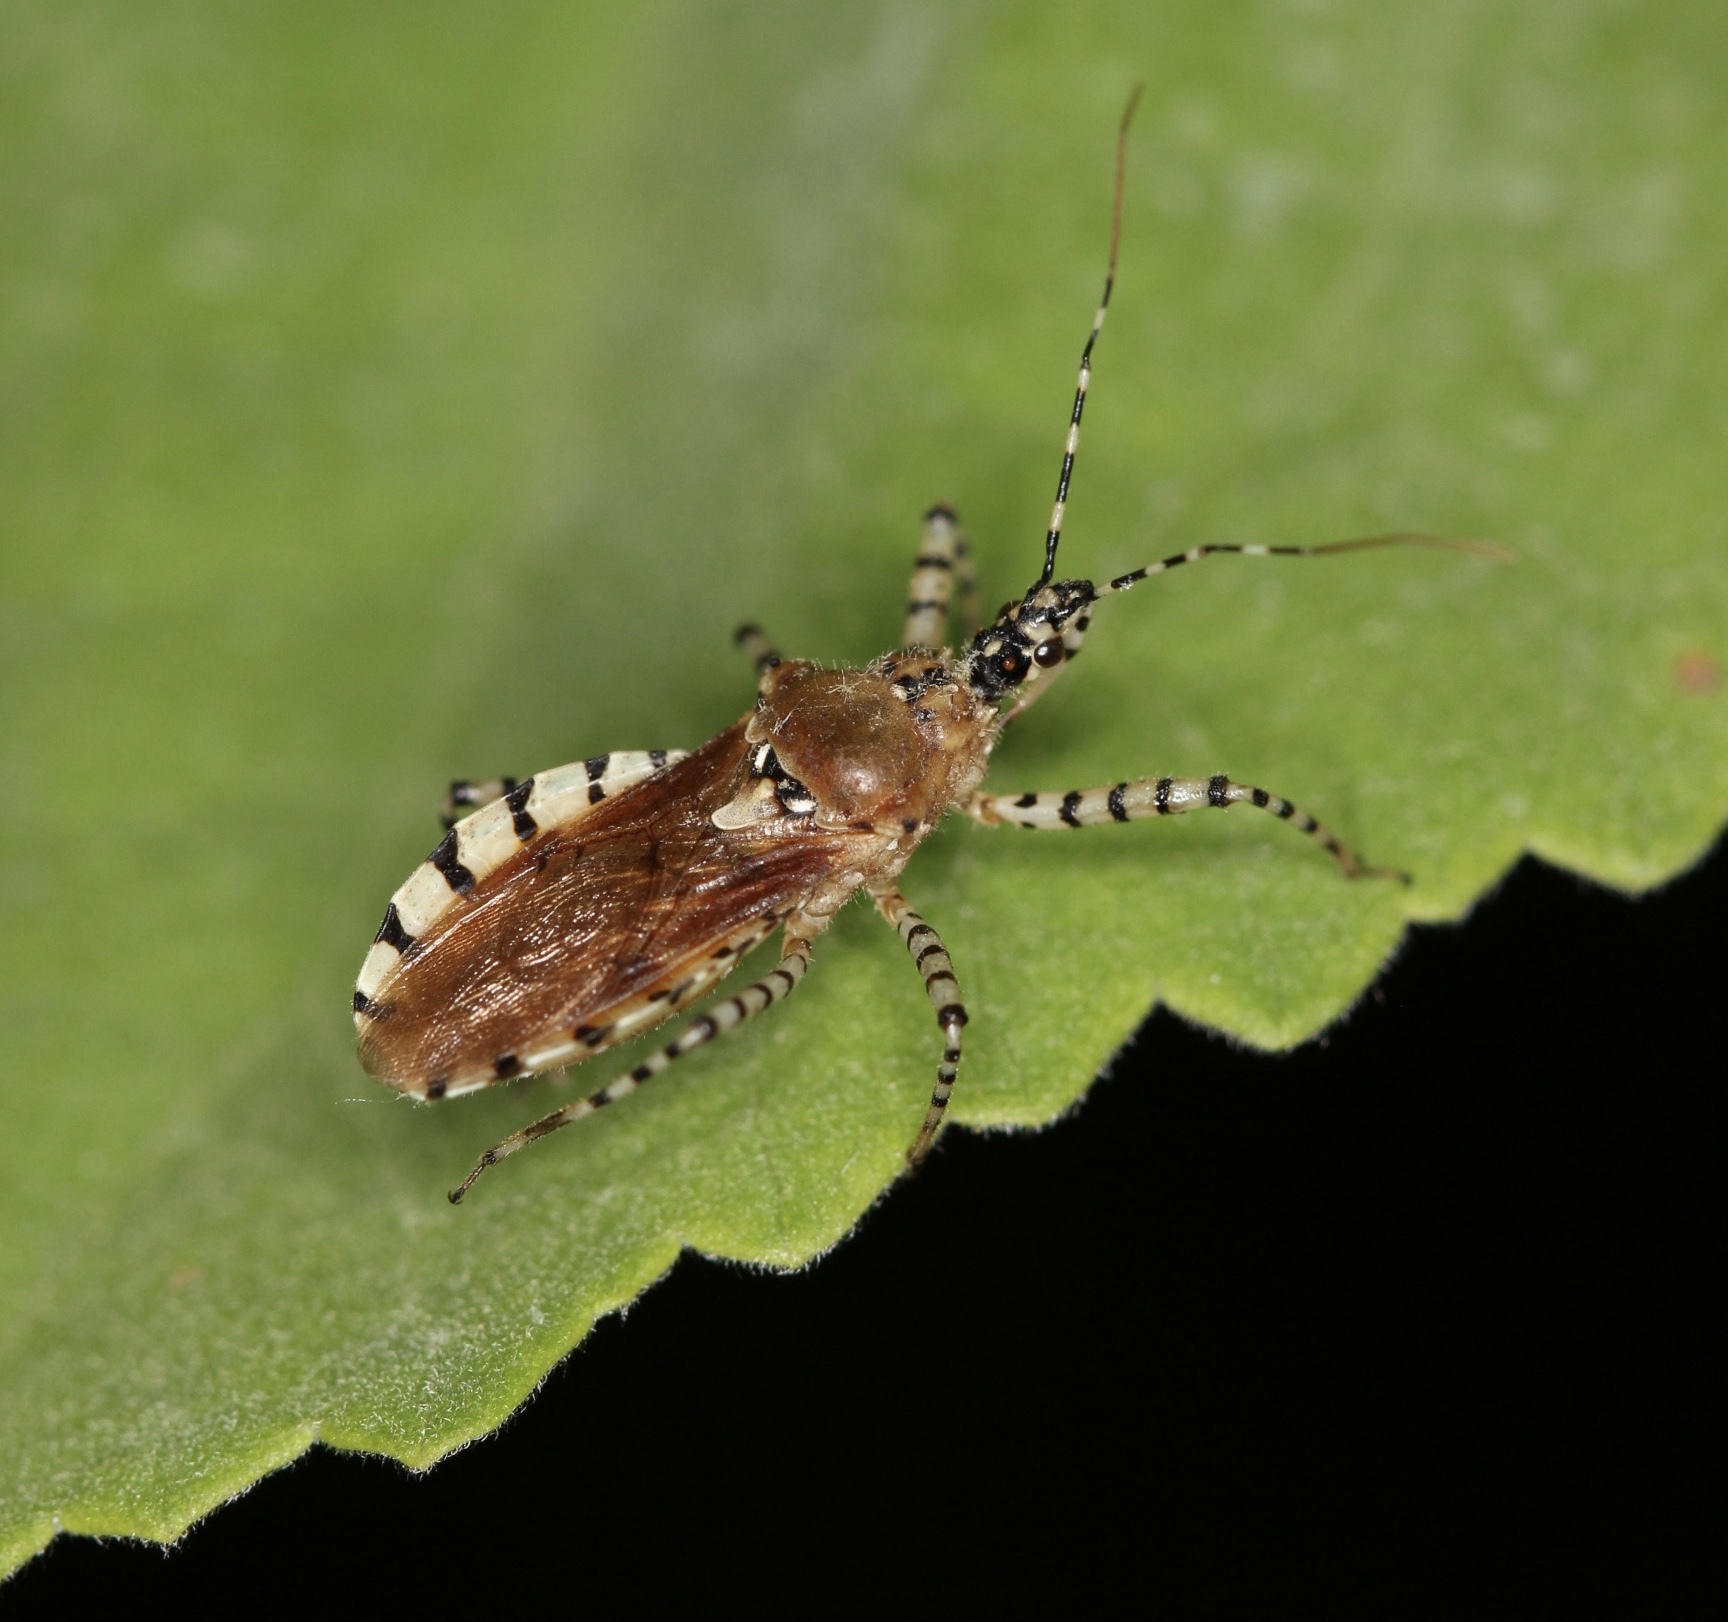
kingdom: Animalia
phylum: Arthropoda
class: Insecta
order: Hemiptera
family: Reduviidae
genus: Pselliopus
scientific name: Pselliopus cinctus
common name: Ringed assassin bug
